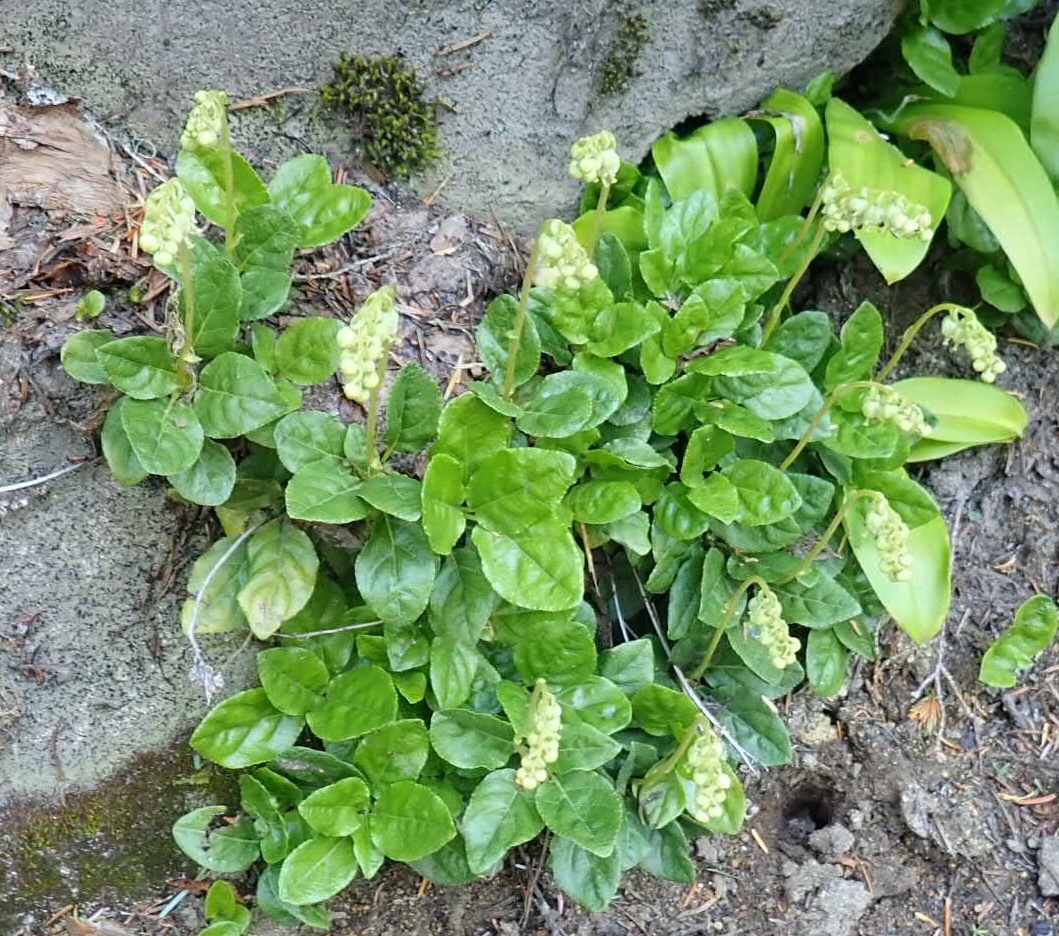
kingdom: Plantae
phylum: Tracheophyta
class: Magnoliopsida
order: Ericales
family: Ericaceae
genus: Orthilia
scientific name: Orthilia secunda
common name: One-sided orthilia
